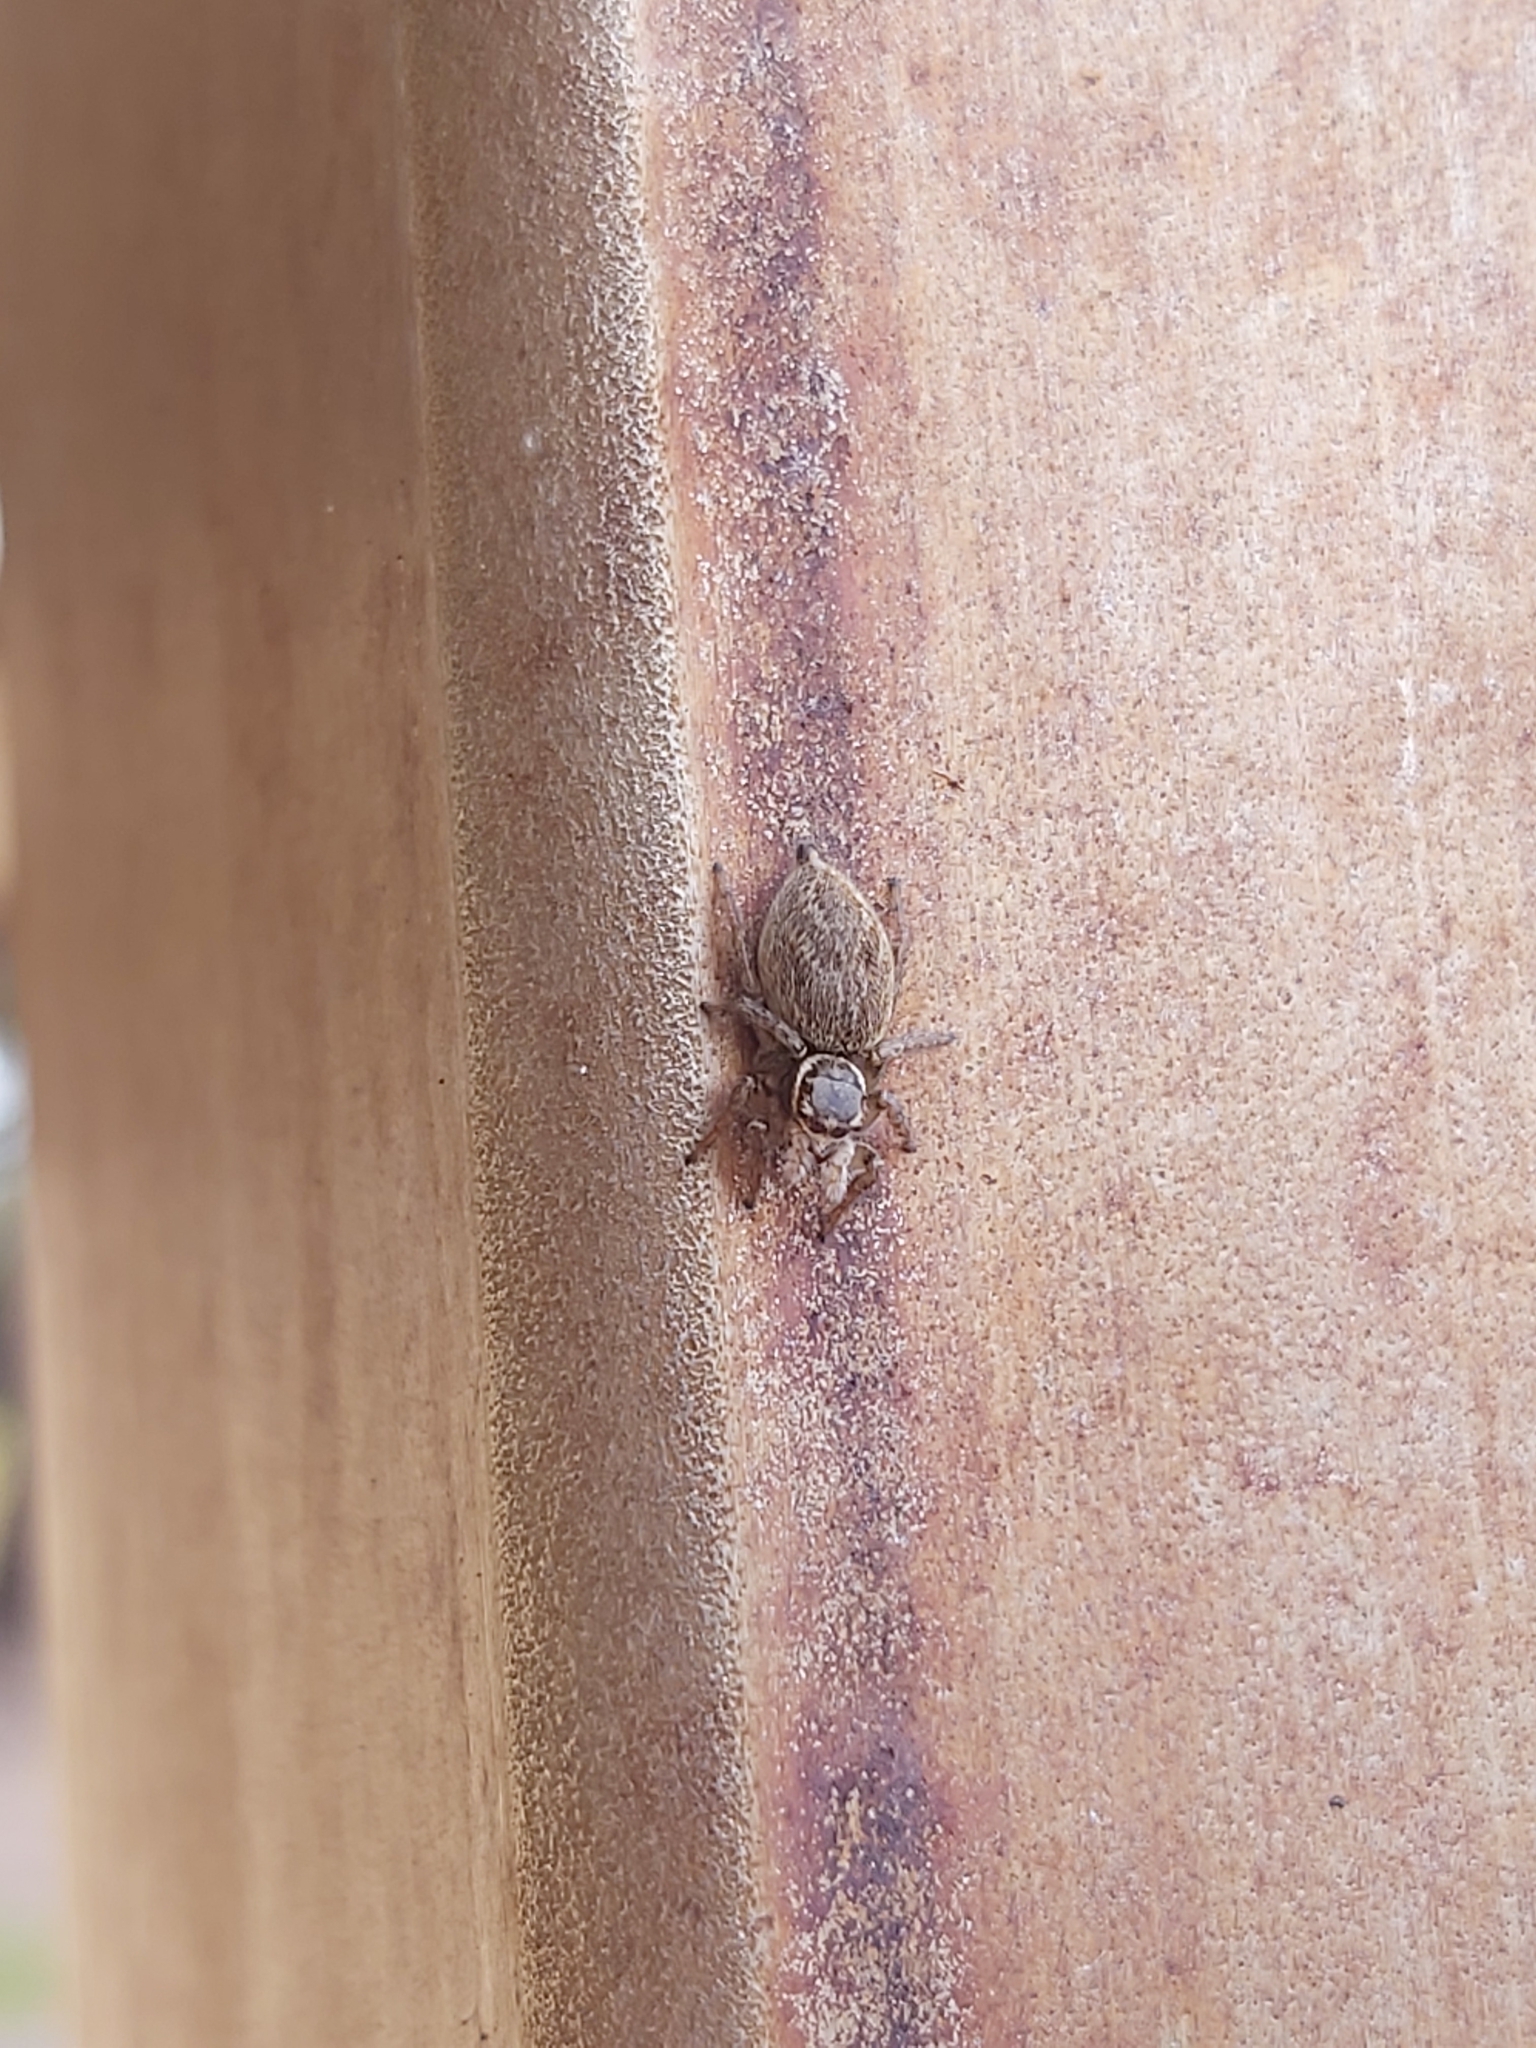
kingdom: Animalia
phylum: Arthropoda
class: Arachnida
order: Araneae
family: Salticidae
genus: Maratus
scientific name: Maratus griseus
